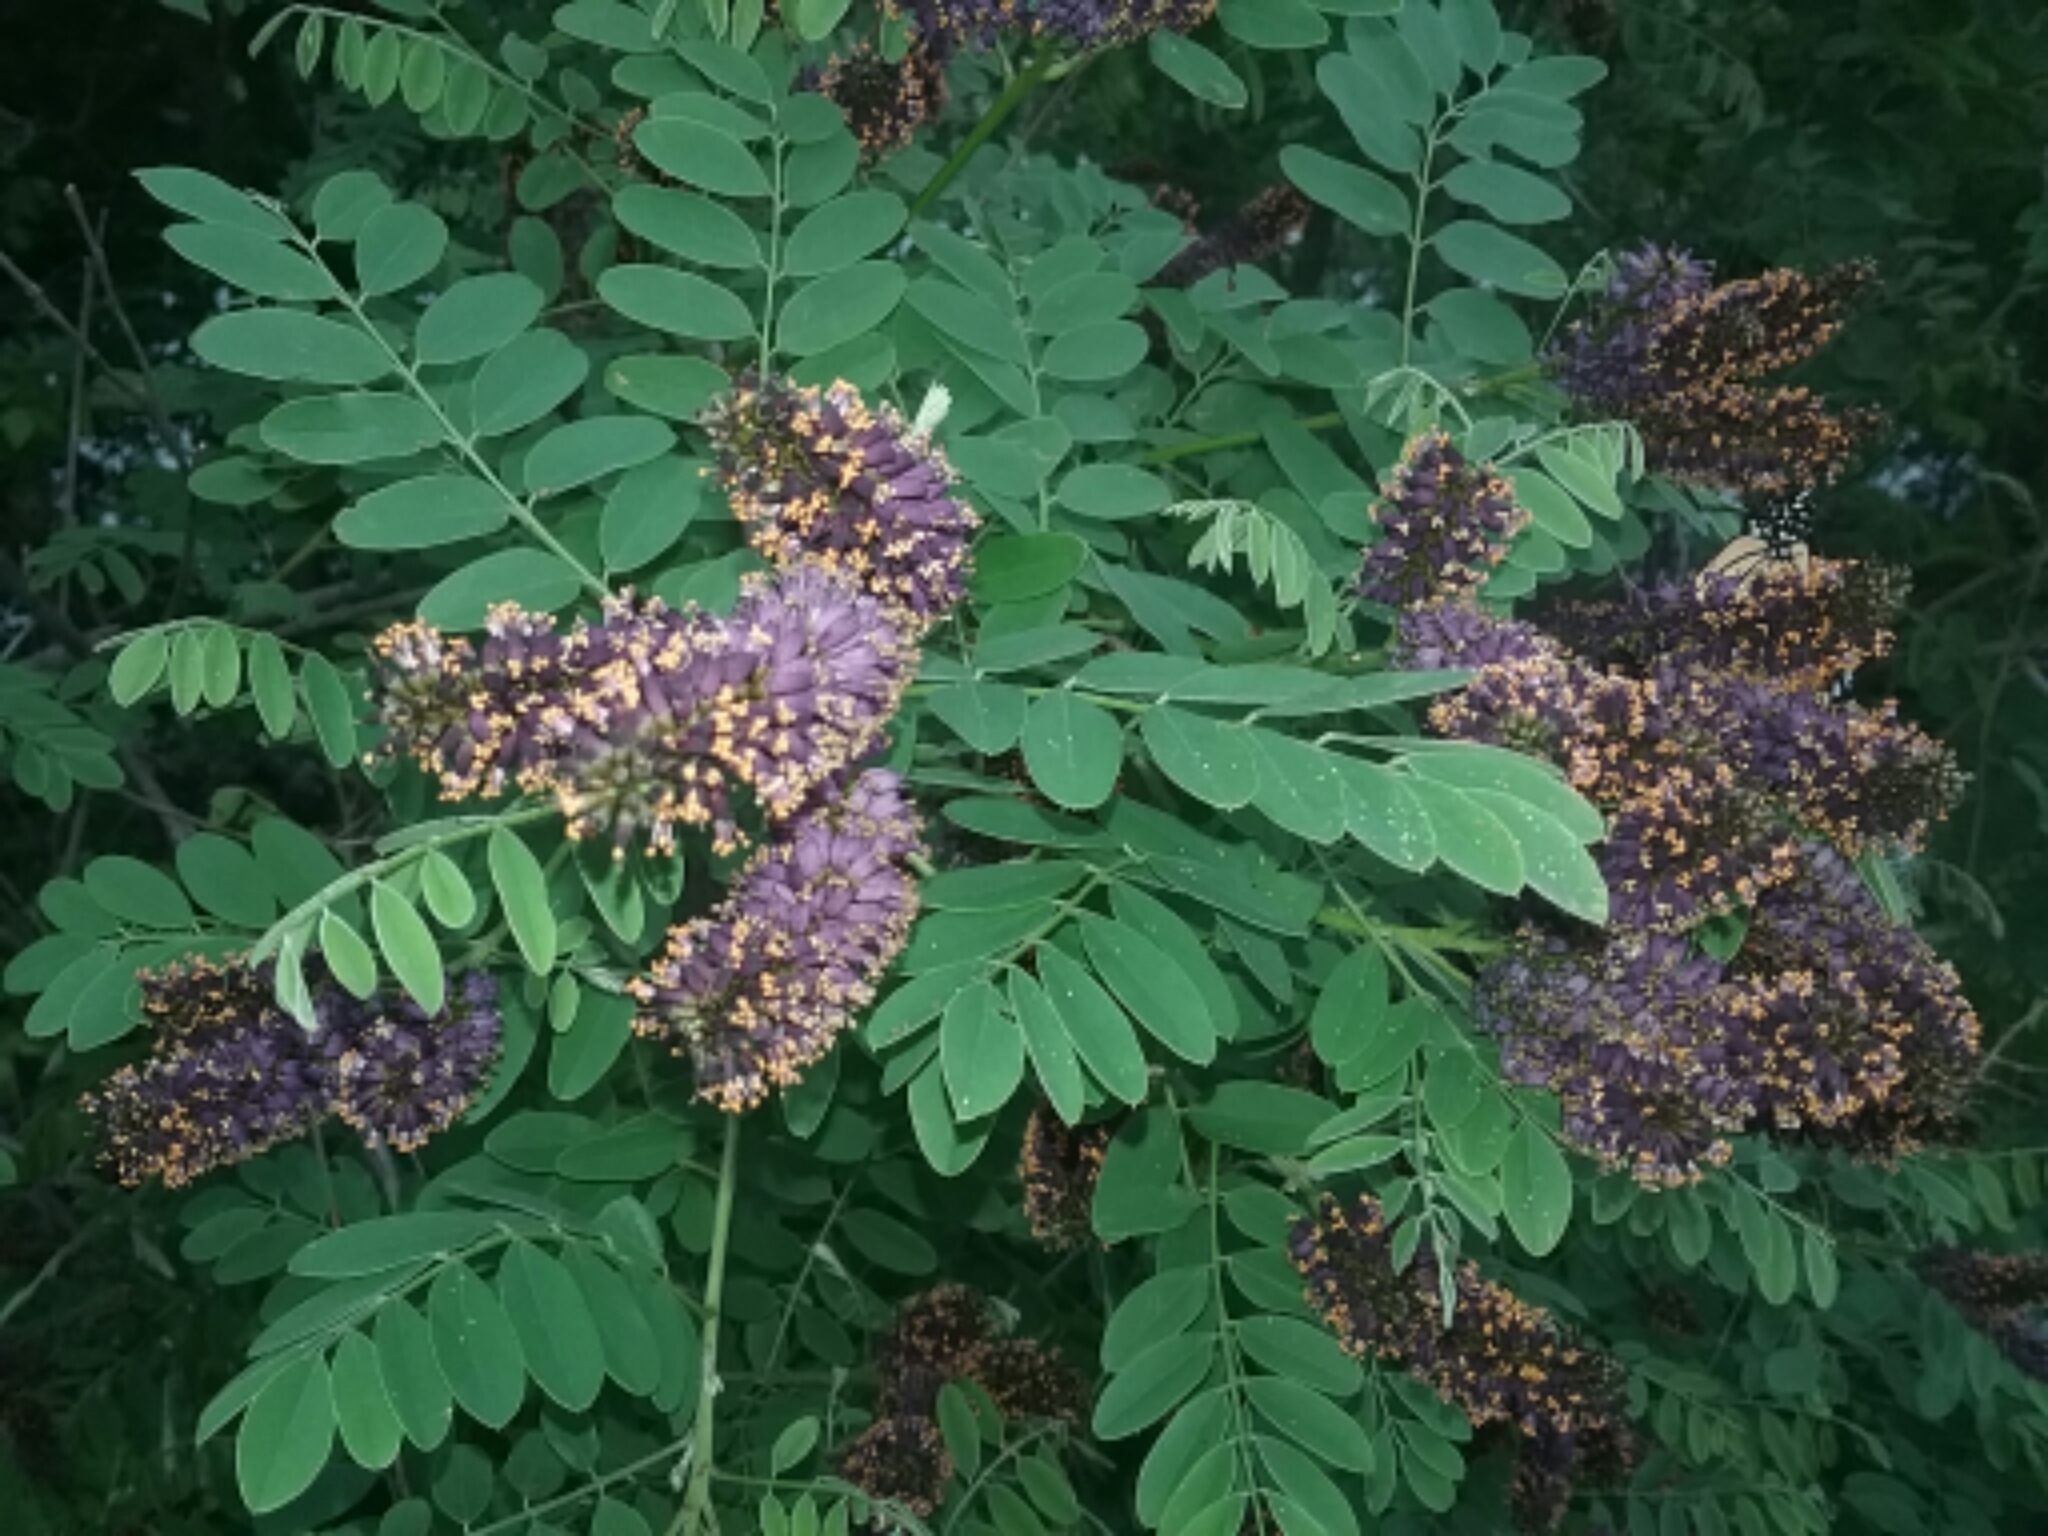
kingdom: Plantae
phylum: Tracheophyta
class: Magnoliopsida
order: Fabales
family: Fabaceae
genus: Amorpha
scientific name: Amorpha fruticosa
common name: False indigo
